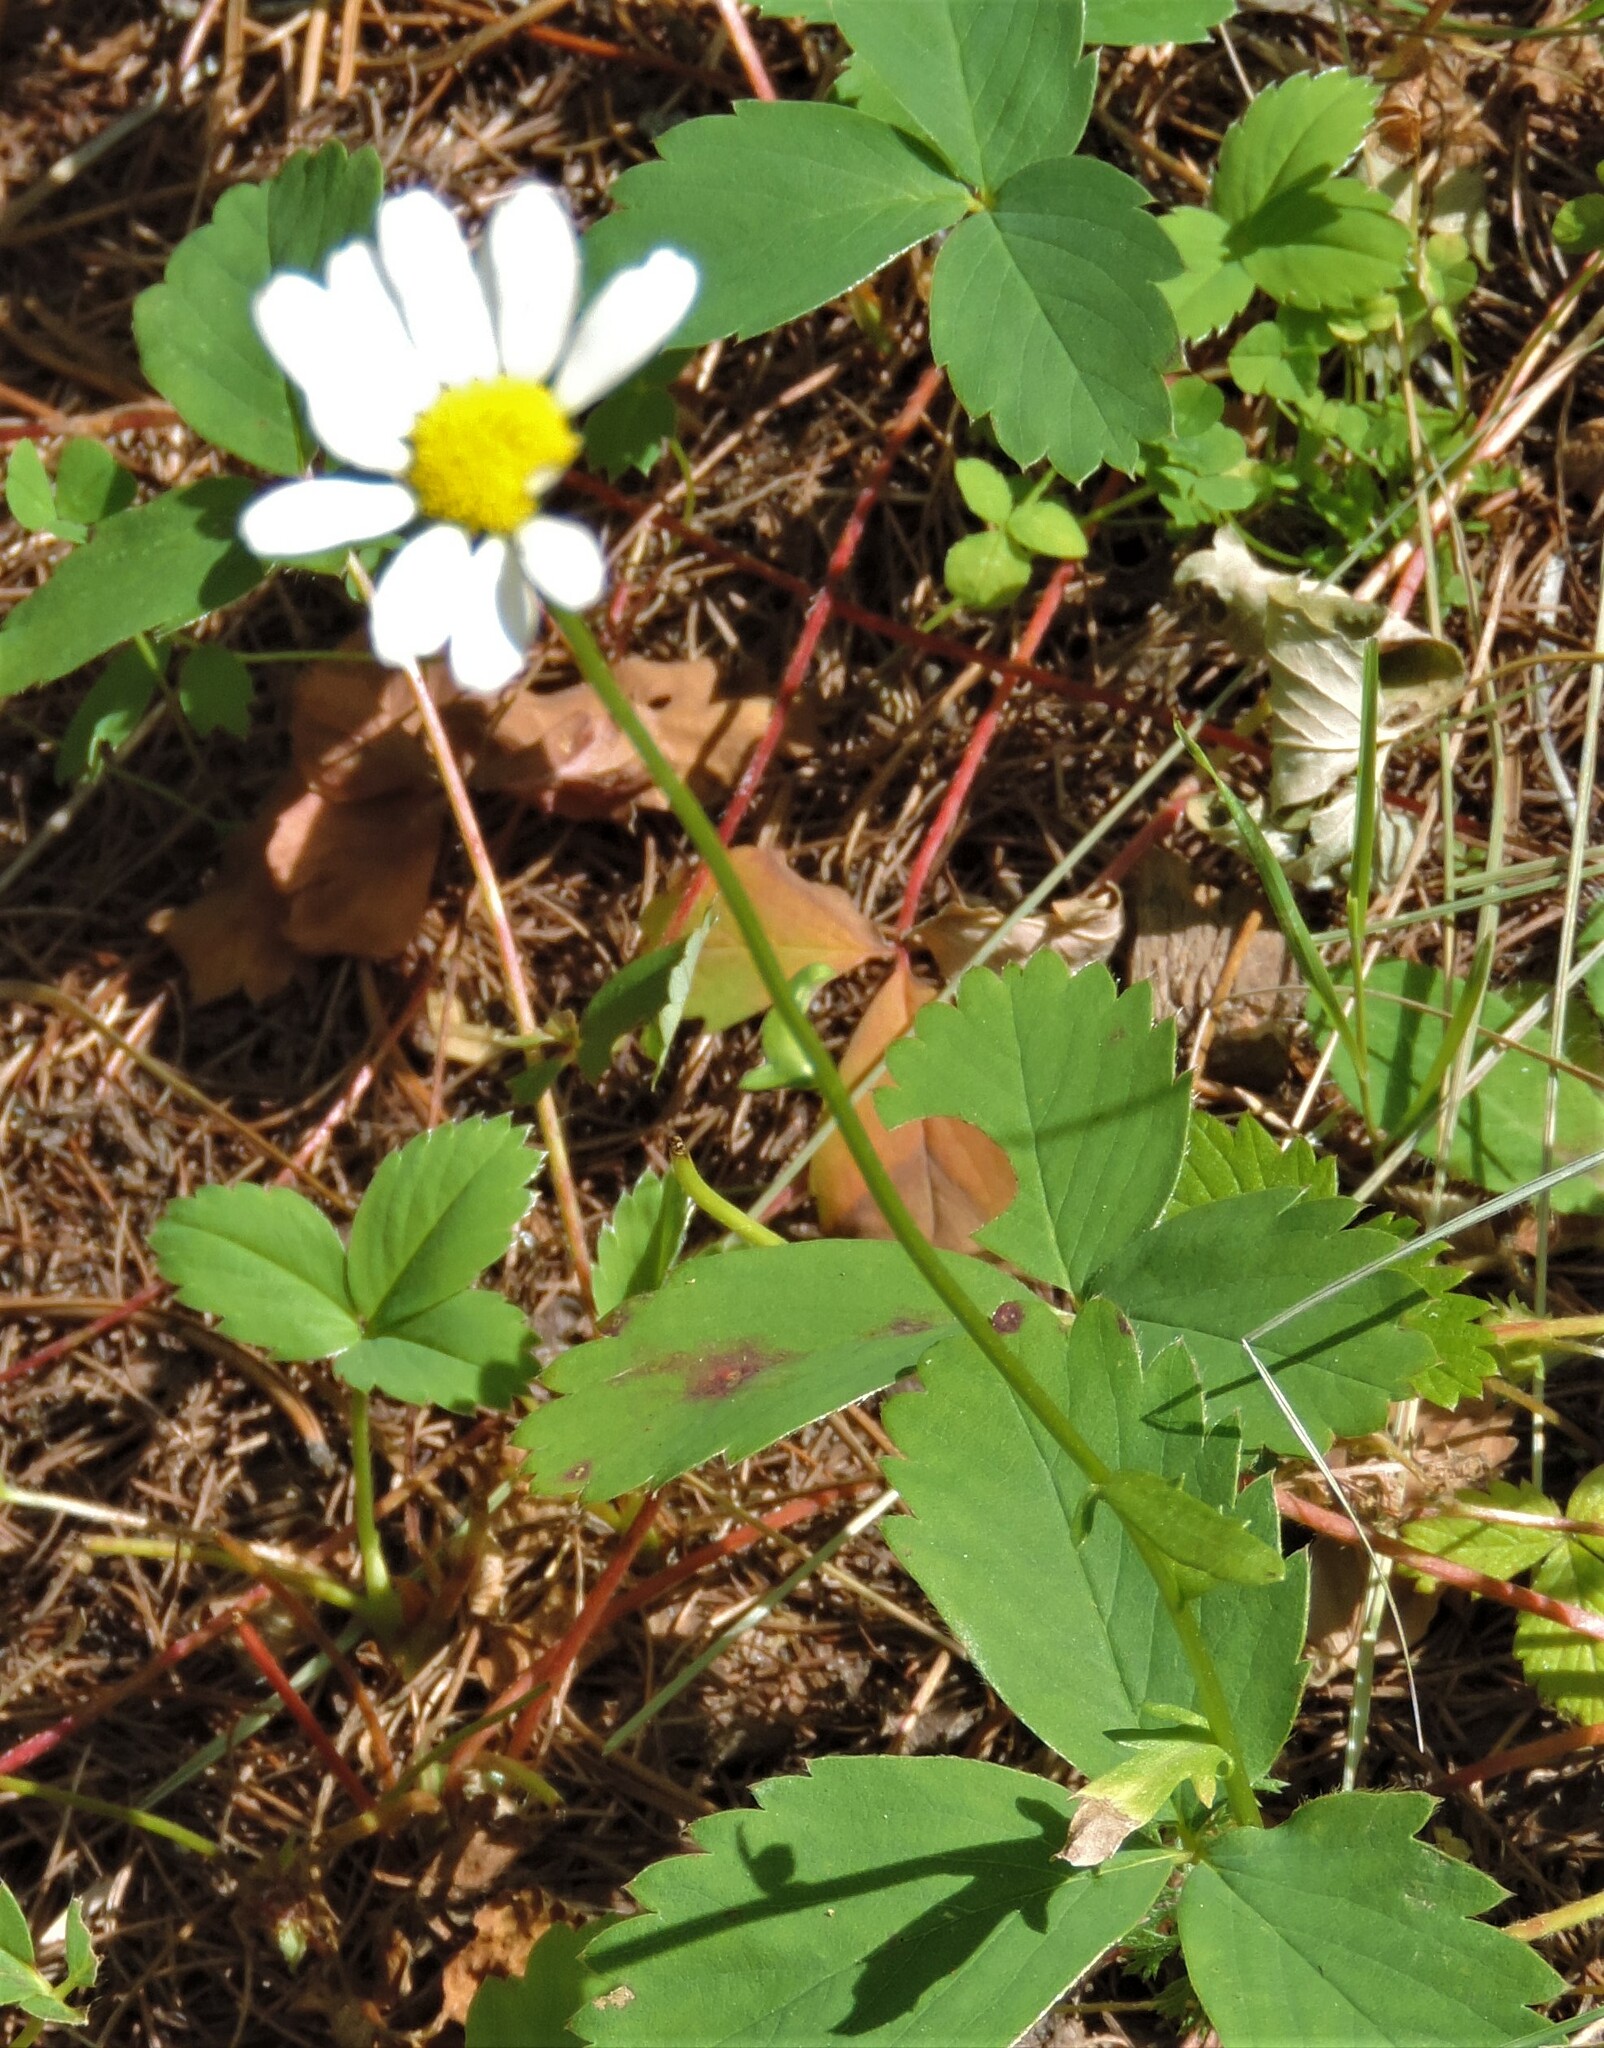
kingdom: Plantae
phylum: Tracheophyta
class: Magnoliopsida
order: Asterales
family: Asteraceae
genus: Leucanthemum
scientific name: Leucanthemum vulgare
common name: Oxeye daisy
